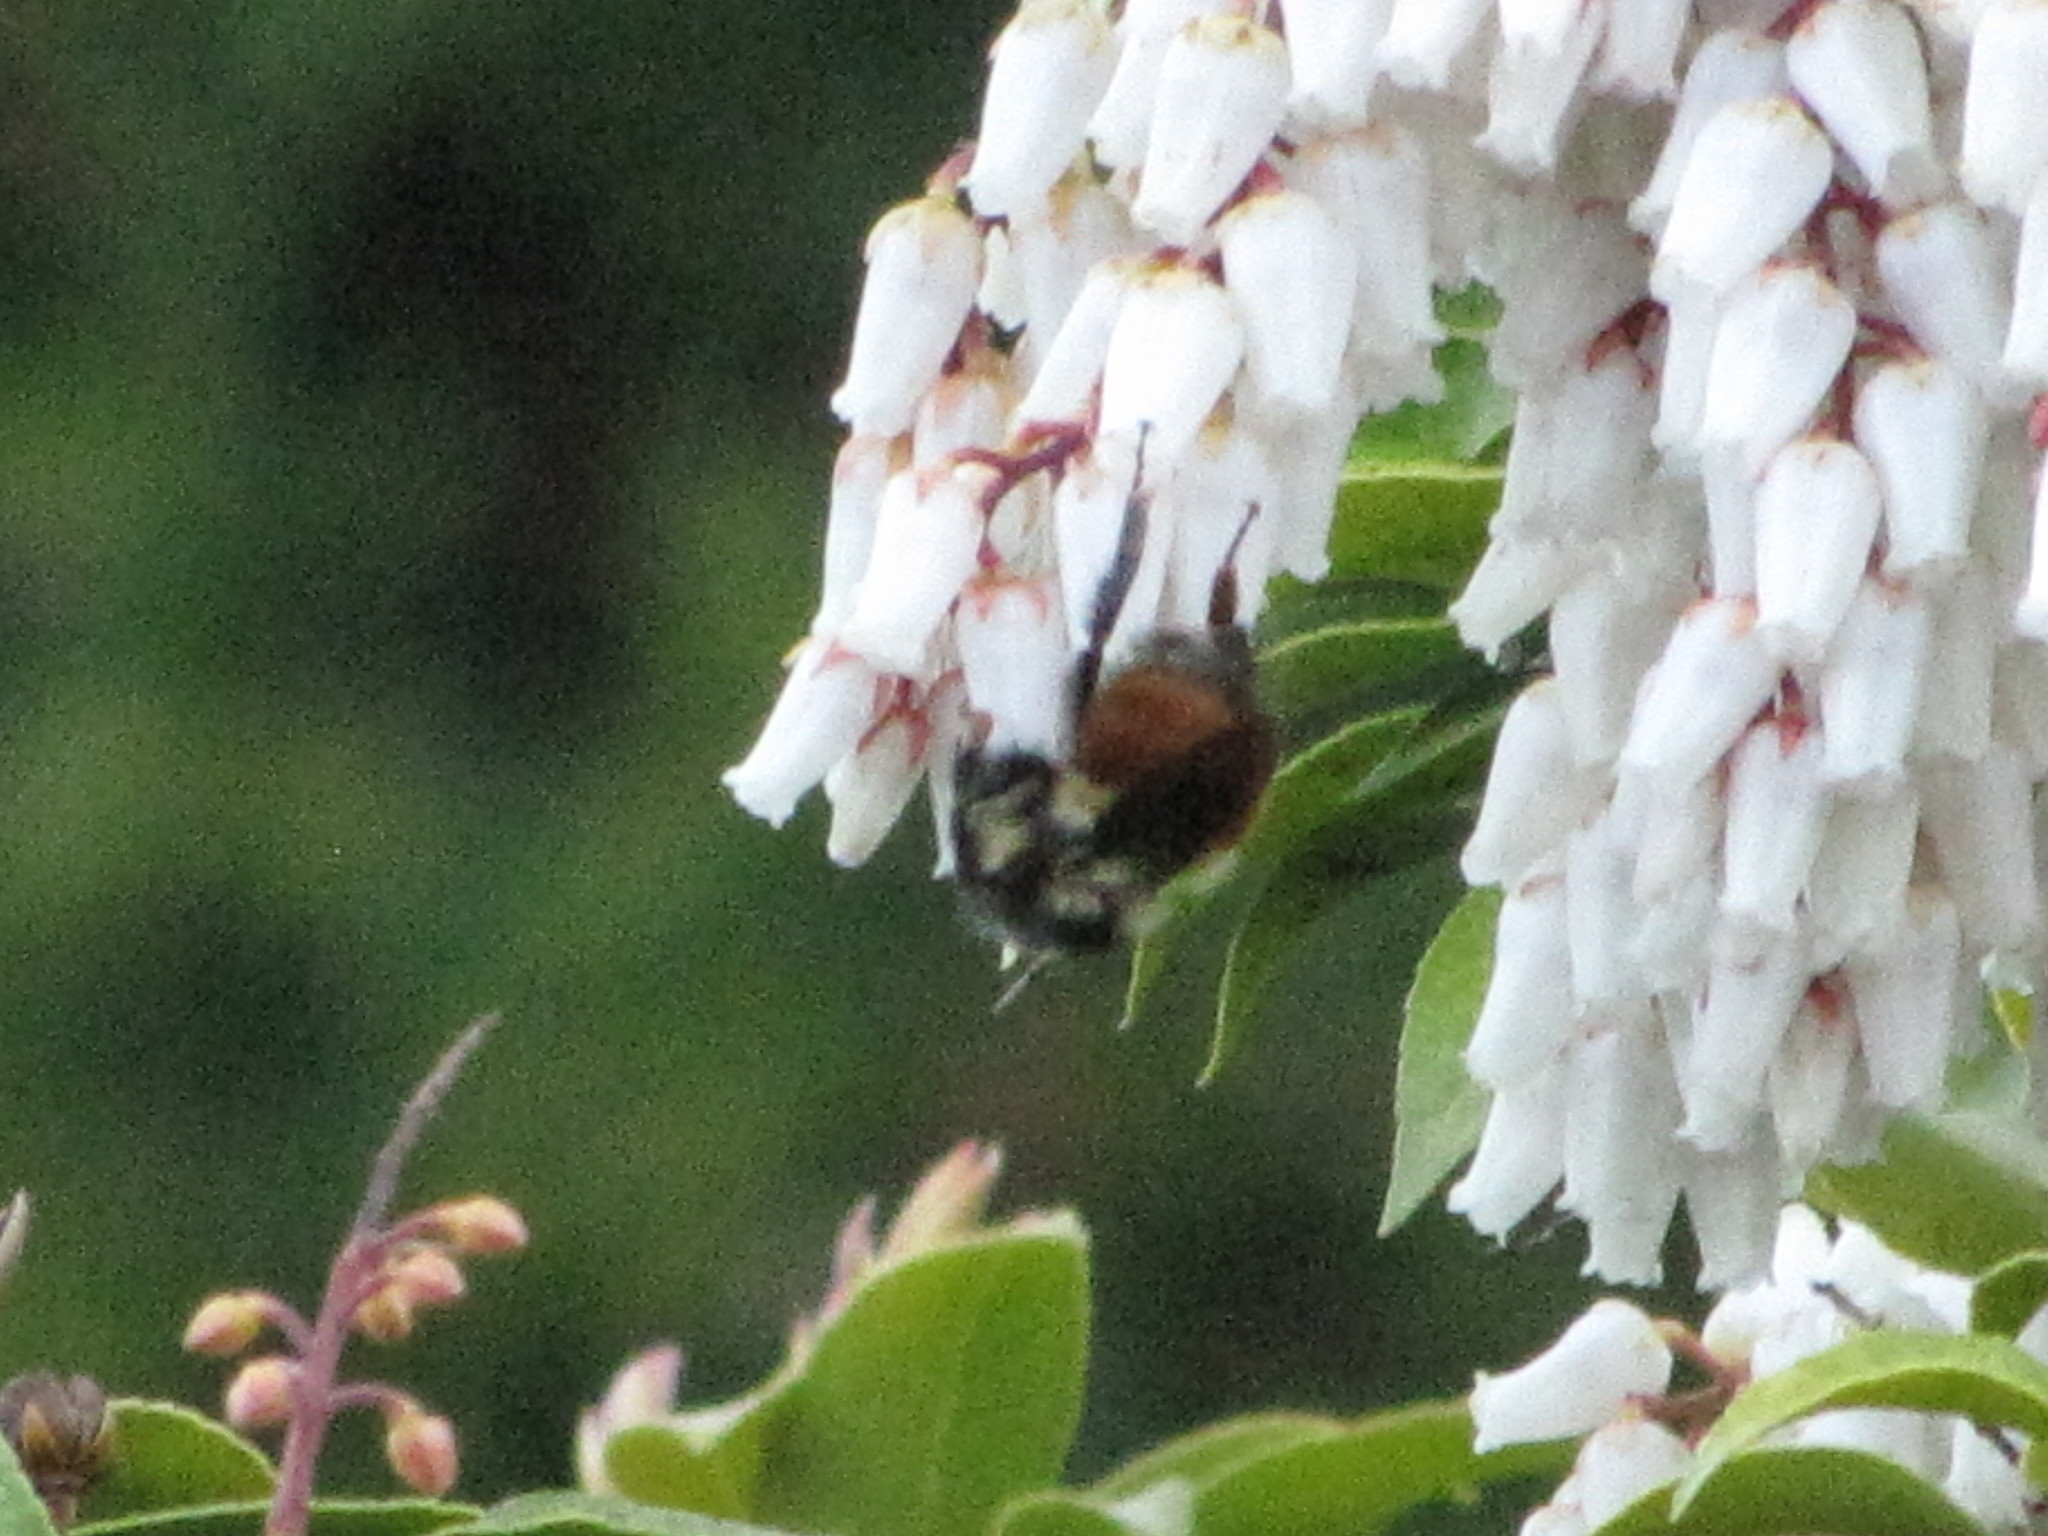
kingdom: Animalia
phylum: Arthropoda
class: Insecta
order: Hymenoptera
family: Apidae
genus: Bombus
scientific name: Bombus melanopygus
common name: Black tail bumble bee
